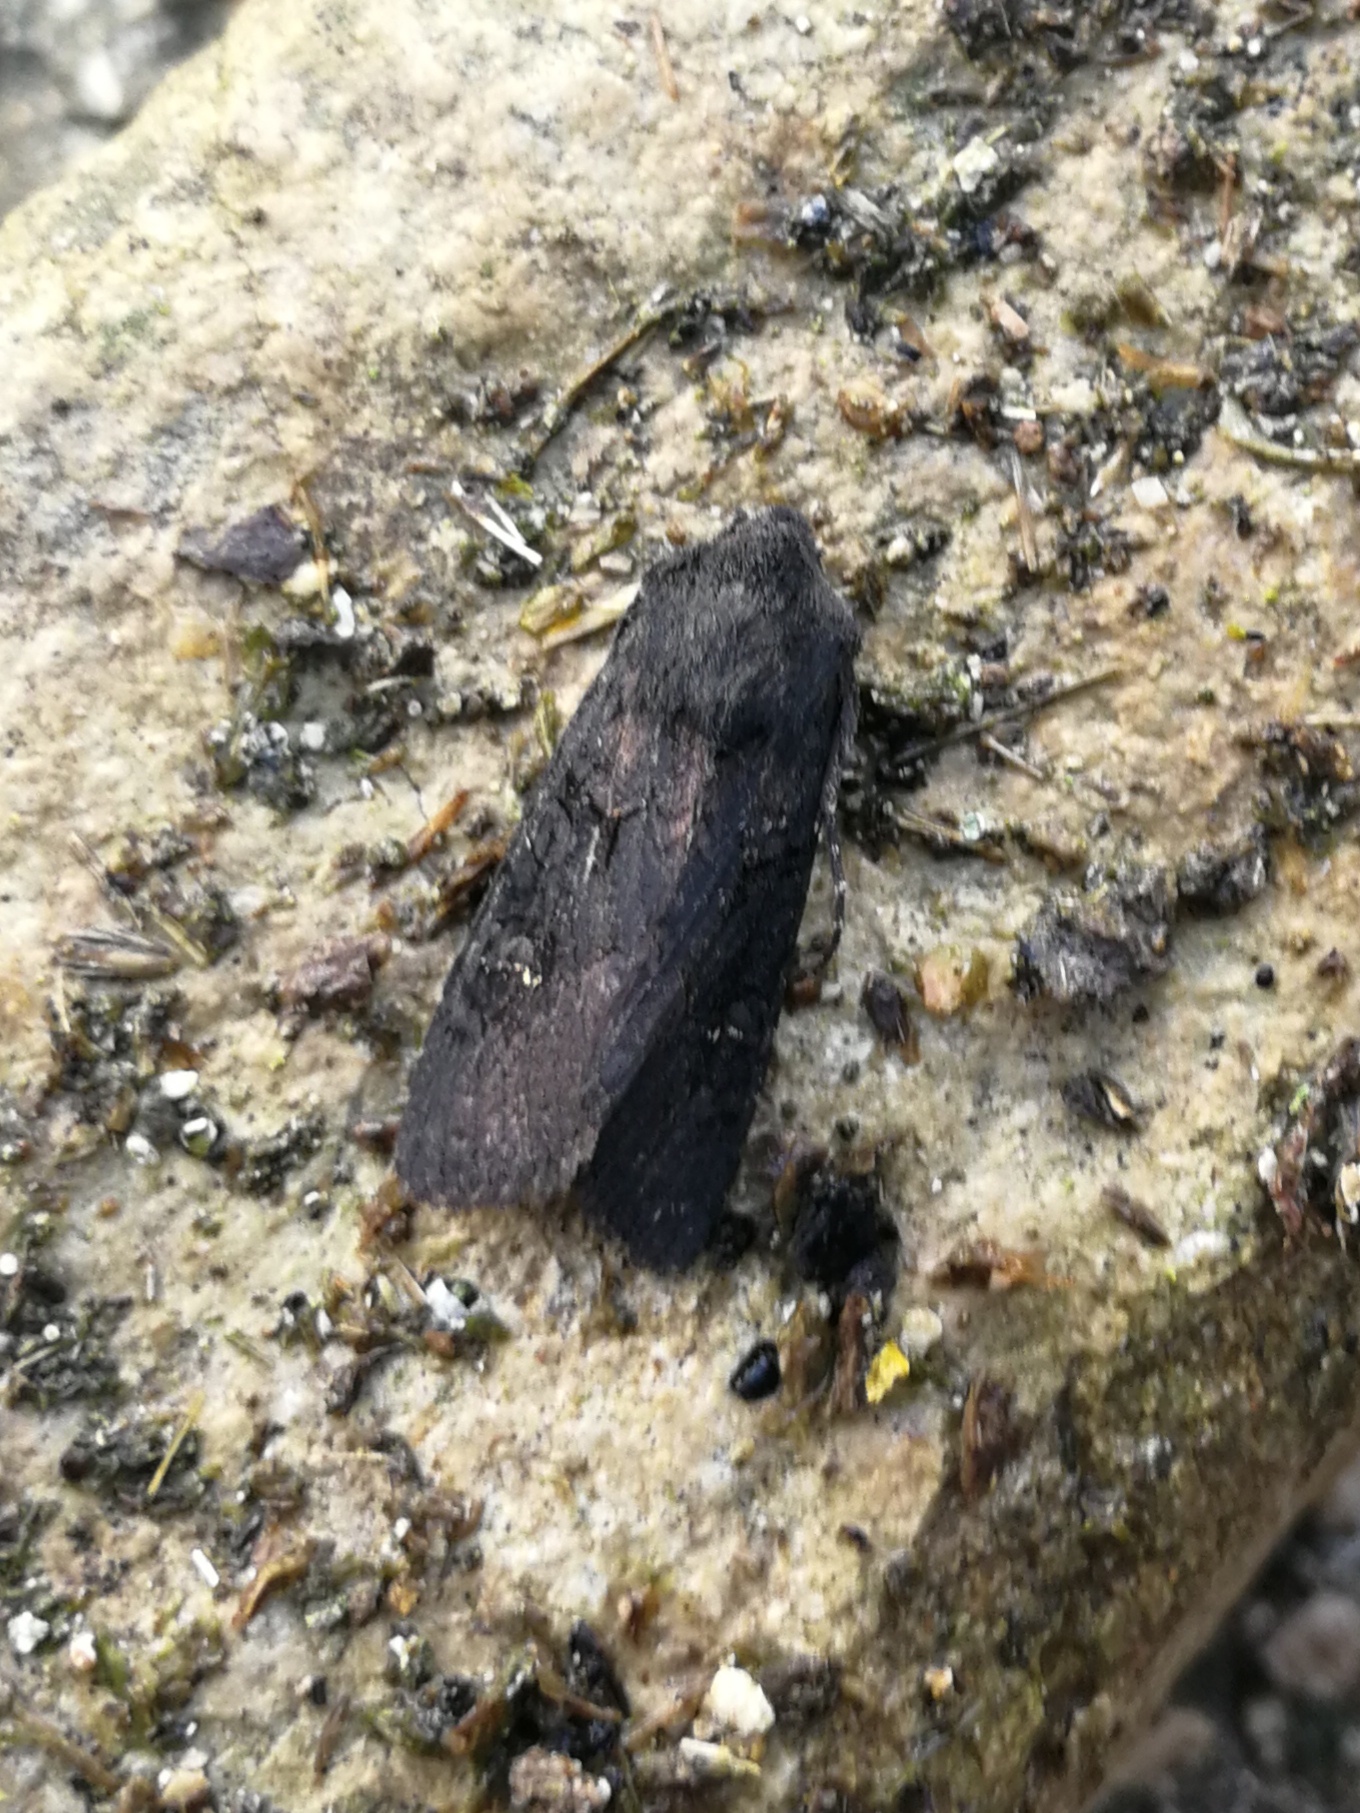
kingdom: Animalia
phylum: Arthropoda
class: Insecta
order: Lepidoptera
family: Noctuidae
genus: Aporophyla
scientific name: Aporophyla nigra
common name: Black rustic
